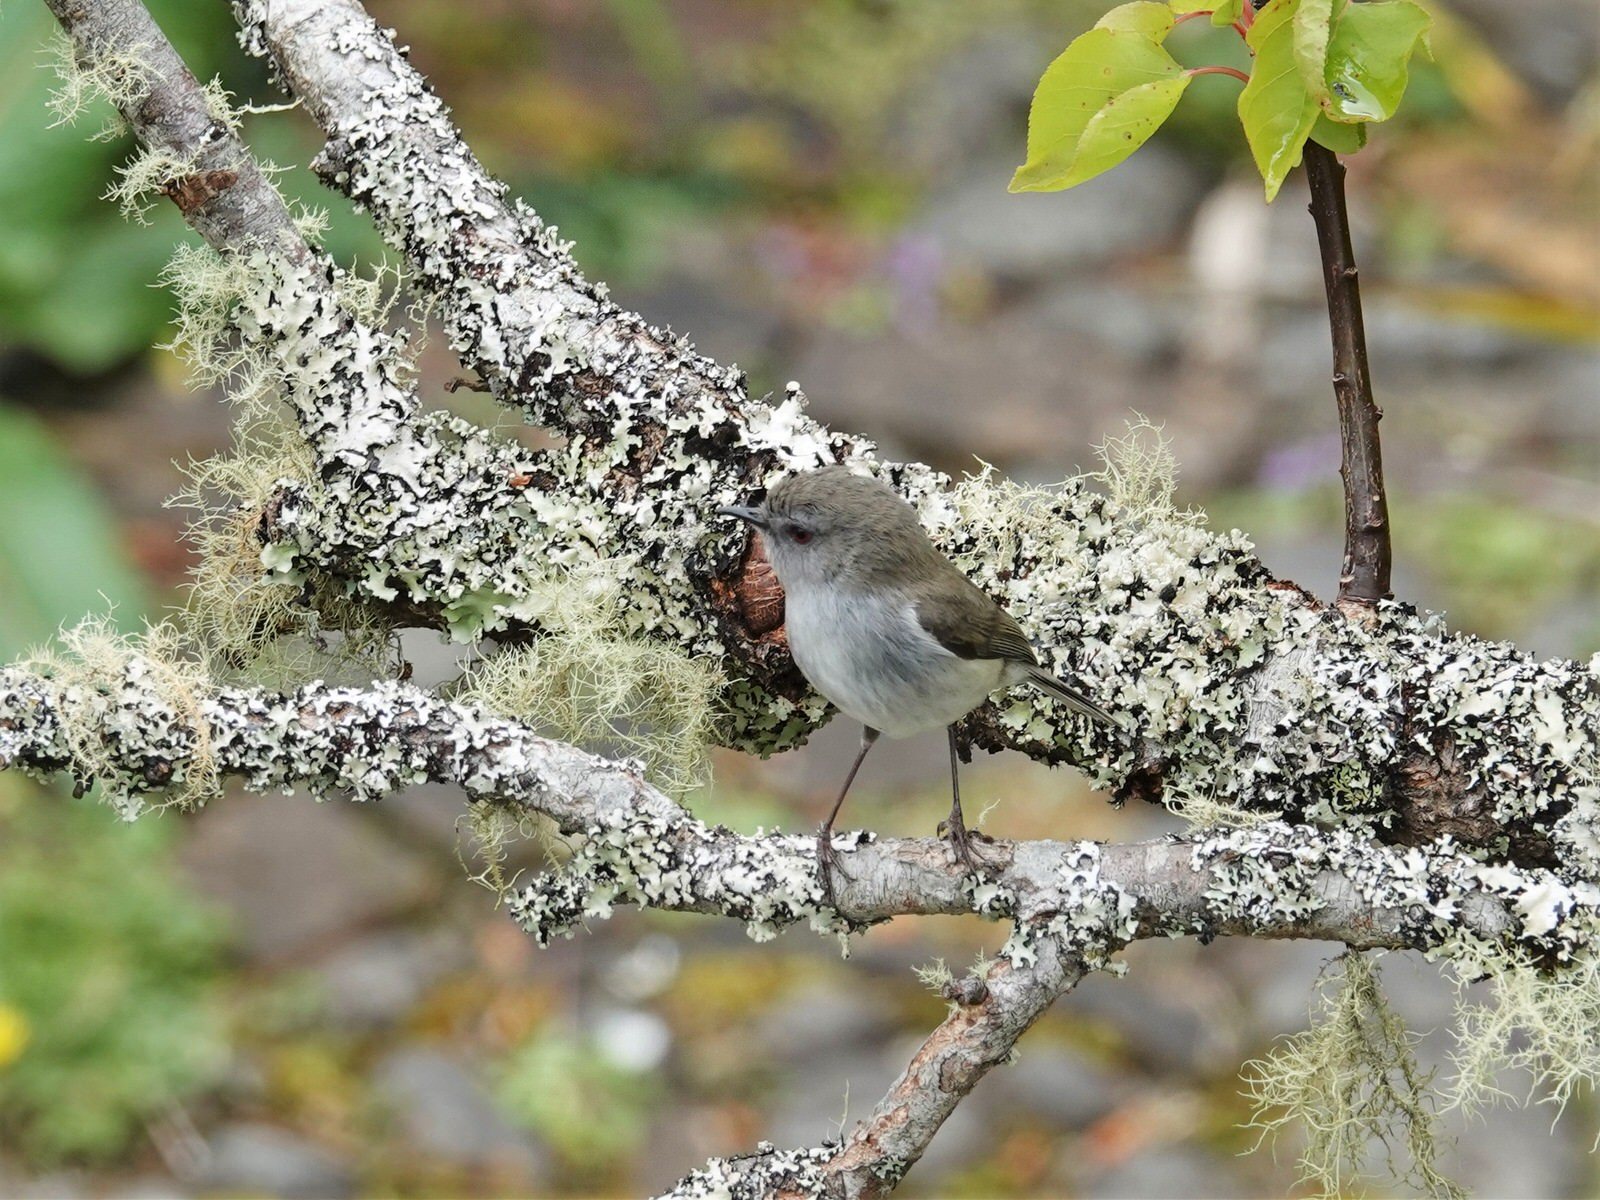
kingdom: Animalia
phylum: Chordata
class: Aves
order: Passeriformes
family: Acanthizidae
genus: Gerygone
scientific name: Gerygone igata
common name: Grey gerygone
